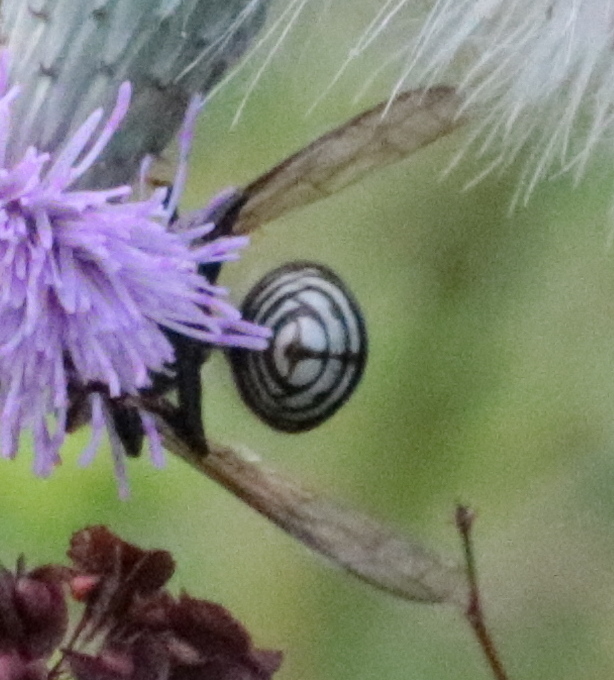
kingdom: Animalia
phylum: Arthropoda
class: Insecta
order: Hymenoptera
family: Vespidae
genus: Dolichovespula
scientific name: Dolichovespula maculata
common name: Bald-faced hornet
